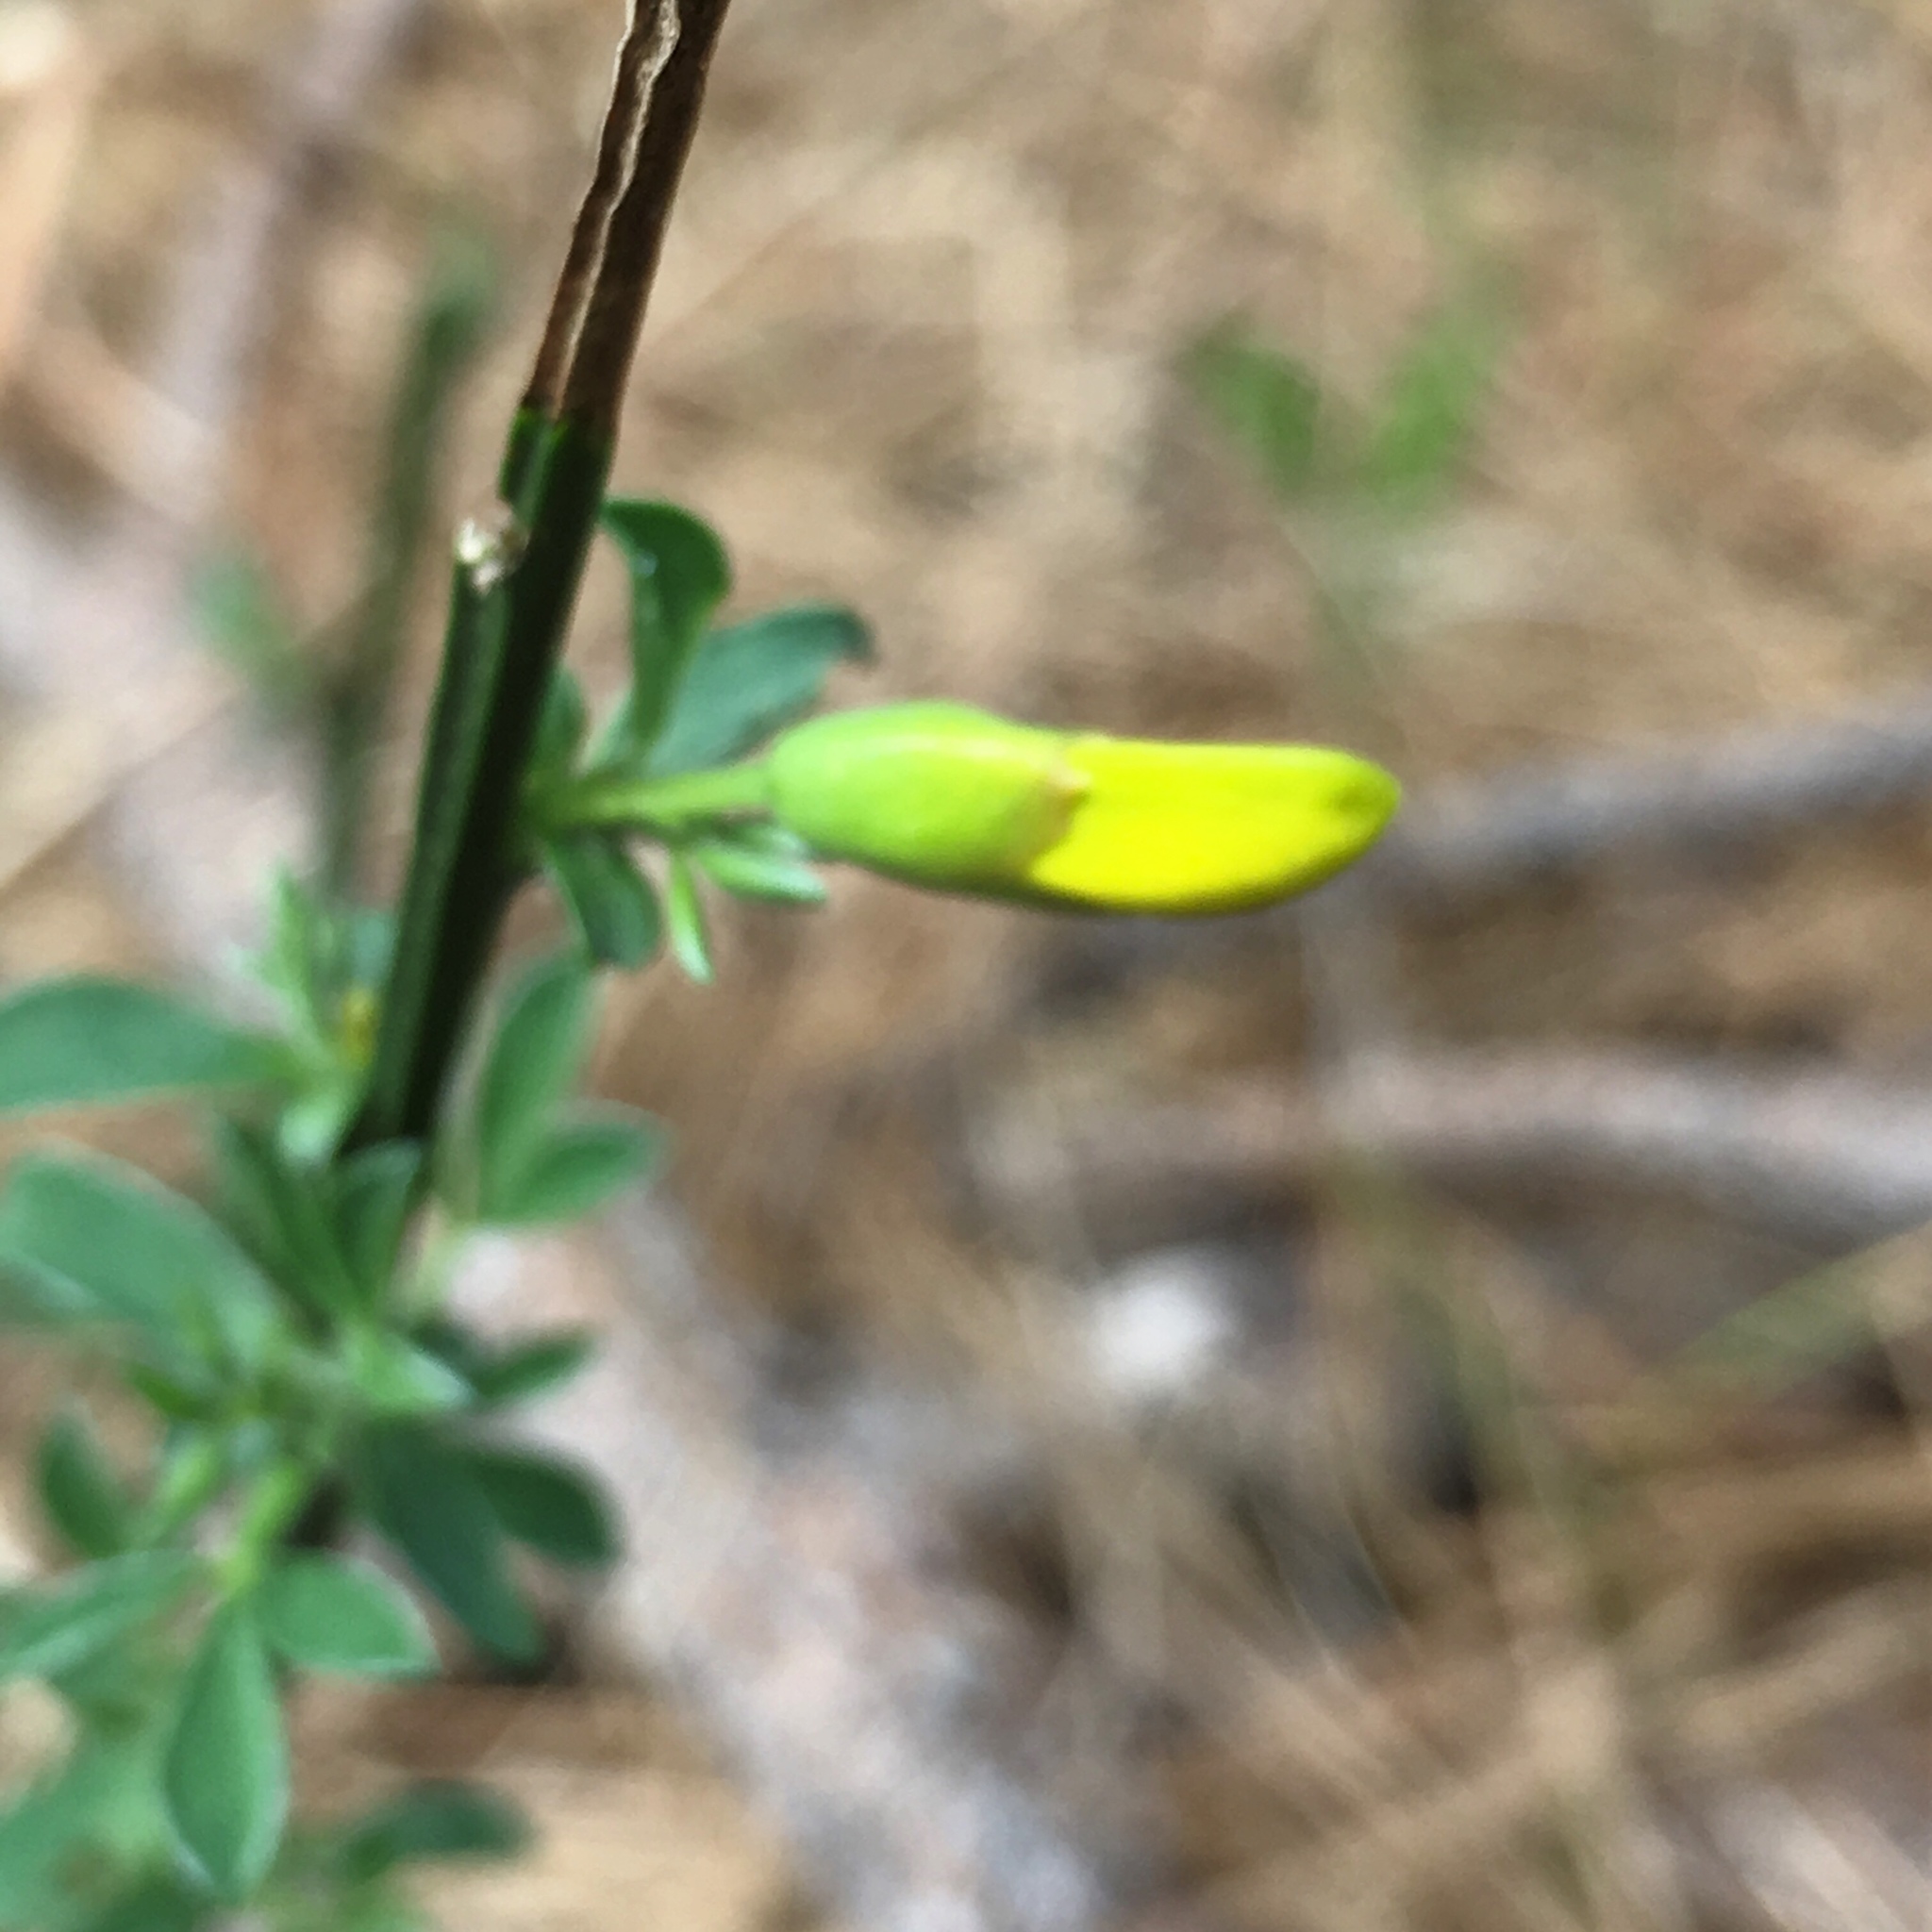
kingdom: Plantae
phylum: Tracheophyta
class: Magnoliopsida
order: Fabales
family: Fabaceae
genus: Cytisus
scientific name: Cytisus scoparius
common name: Scotch broom
